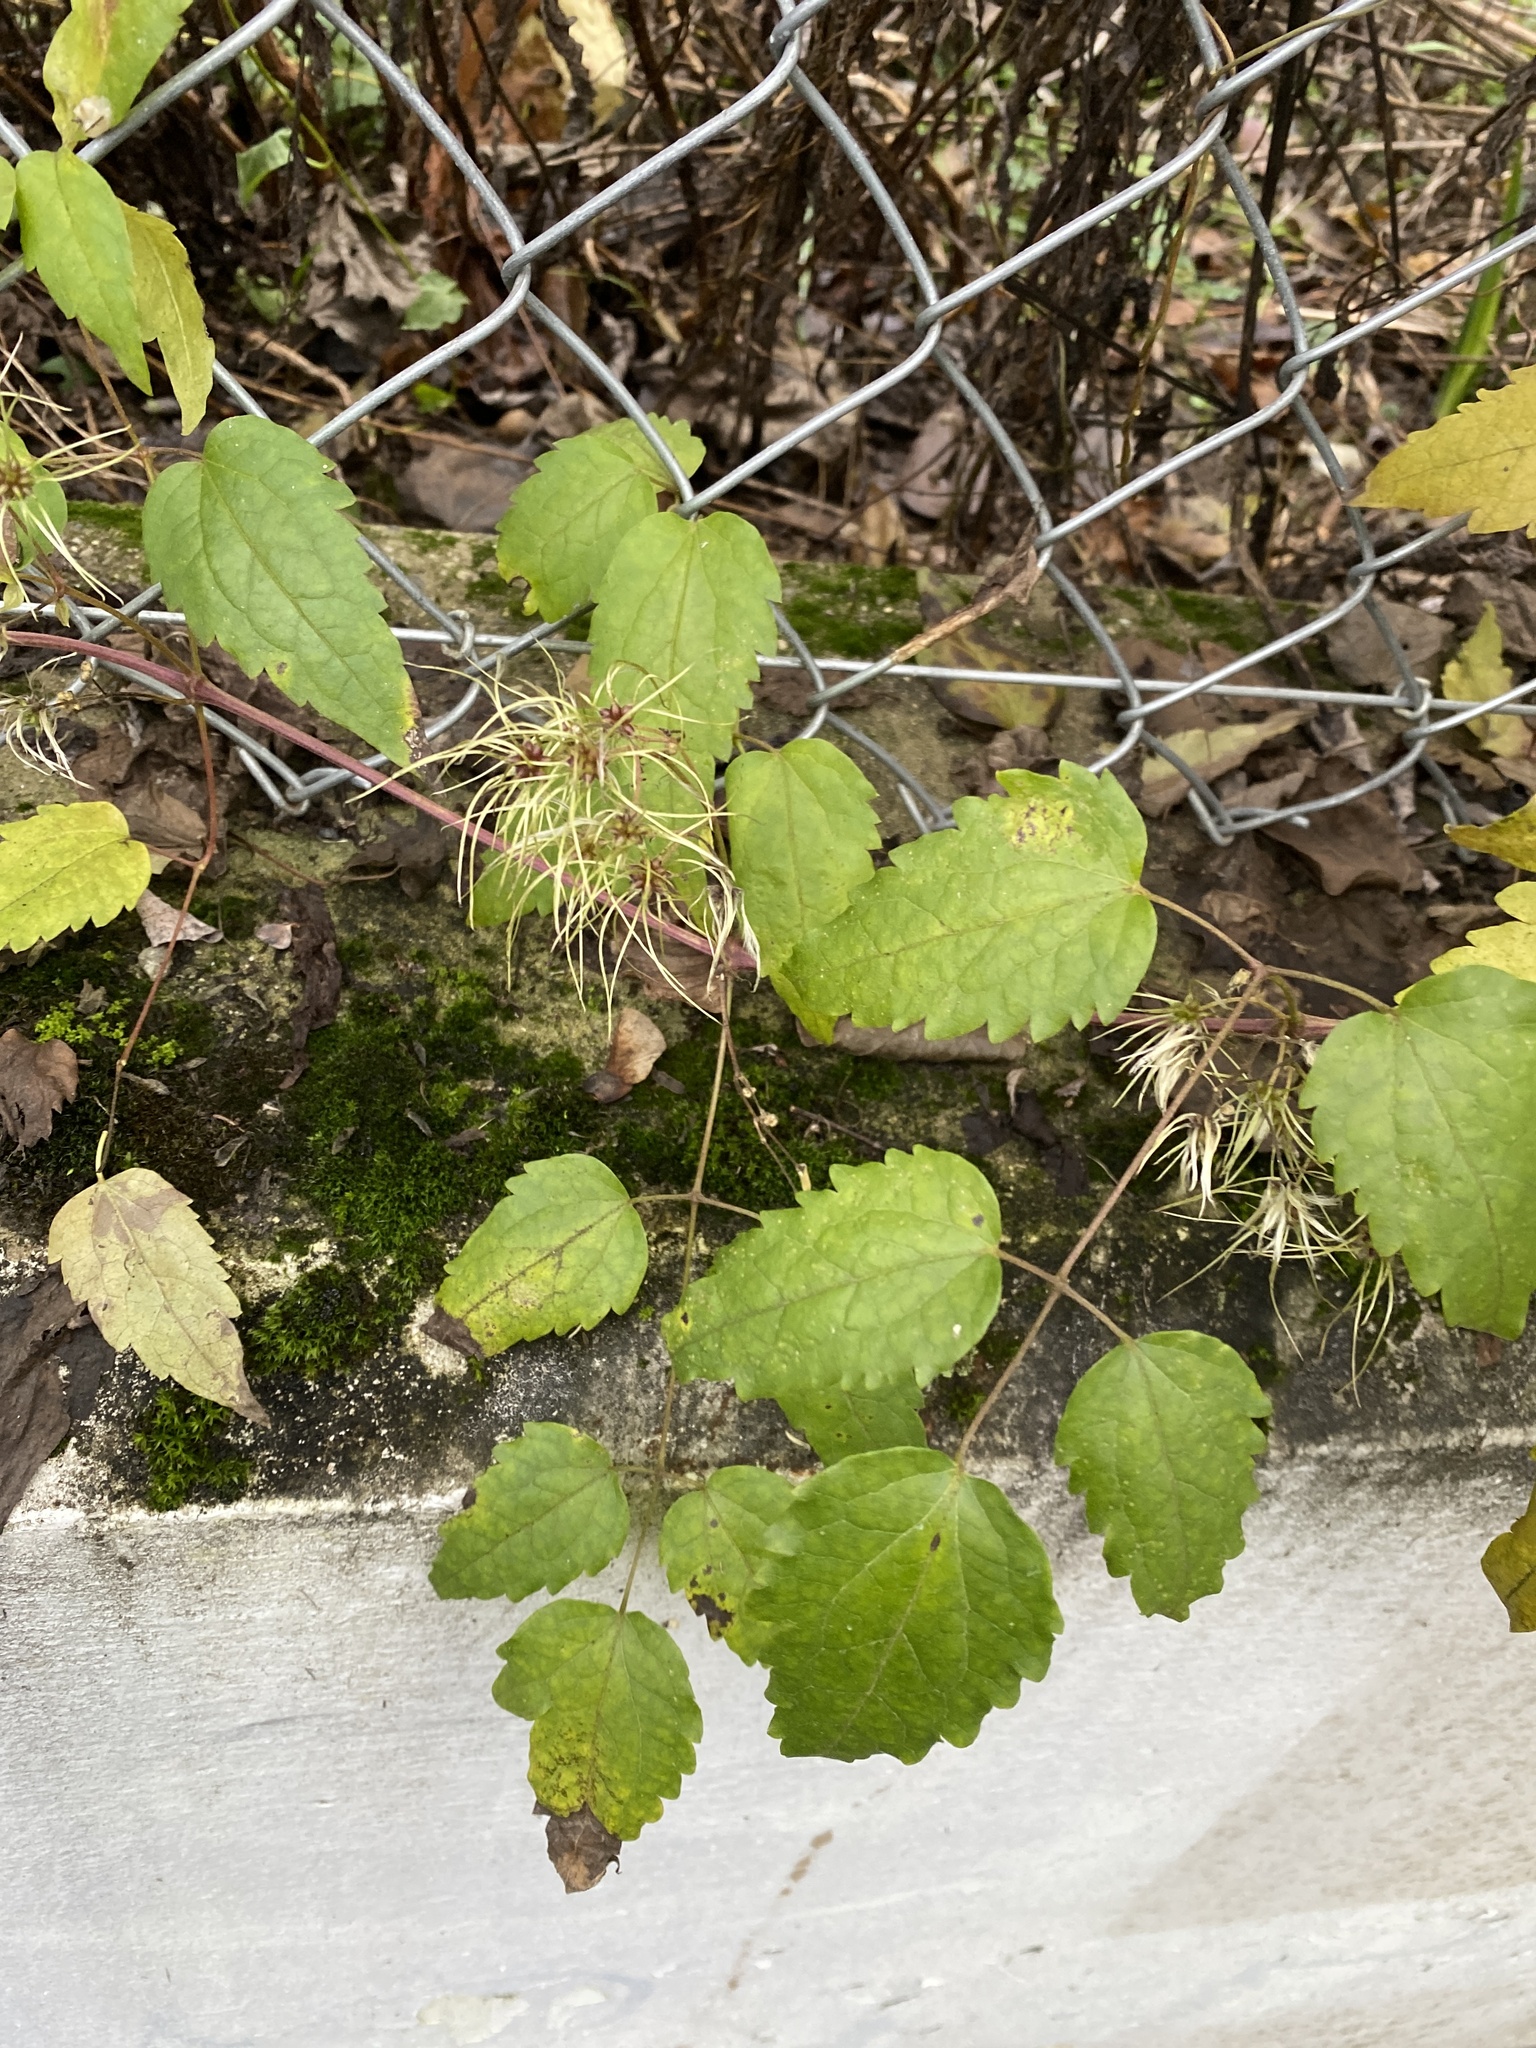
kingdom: Plantae
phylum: Tracheophyta
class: Magnoliopsida
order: Ranunculales
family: Ranunculaceae
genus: Clematis
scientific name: Clematis vitalba
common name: Evergreen clematis
